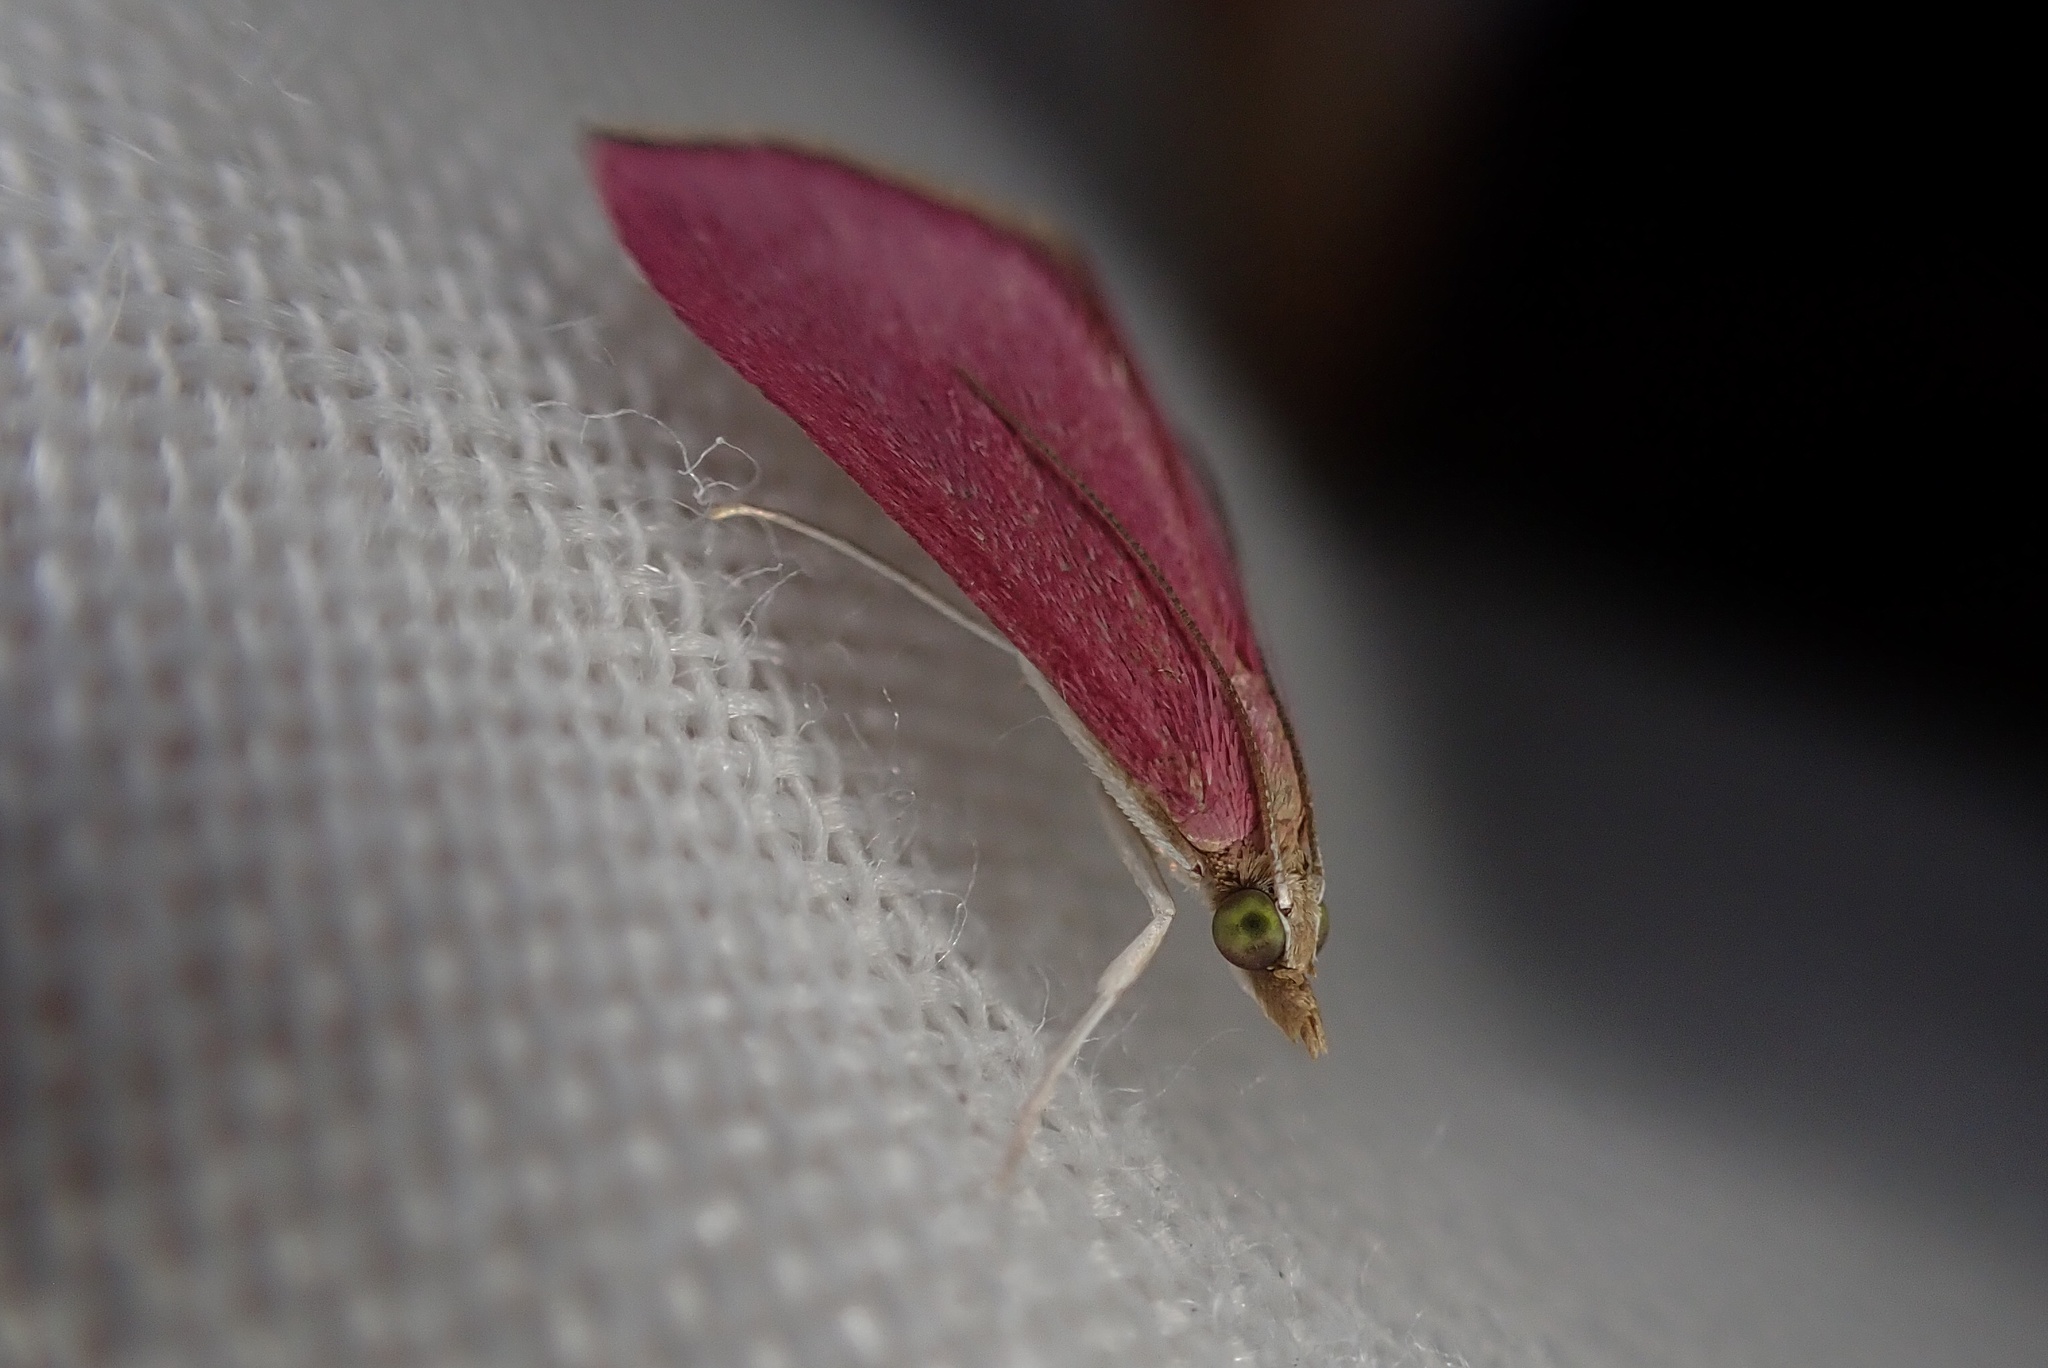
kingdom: Animalia
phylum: Arthropoda
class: Insecta
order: Lepidoptera
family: Crambidae
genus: Pyrausta
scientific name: Pyrausta inornatalis
